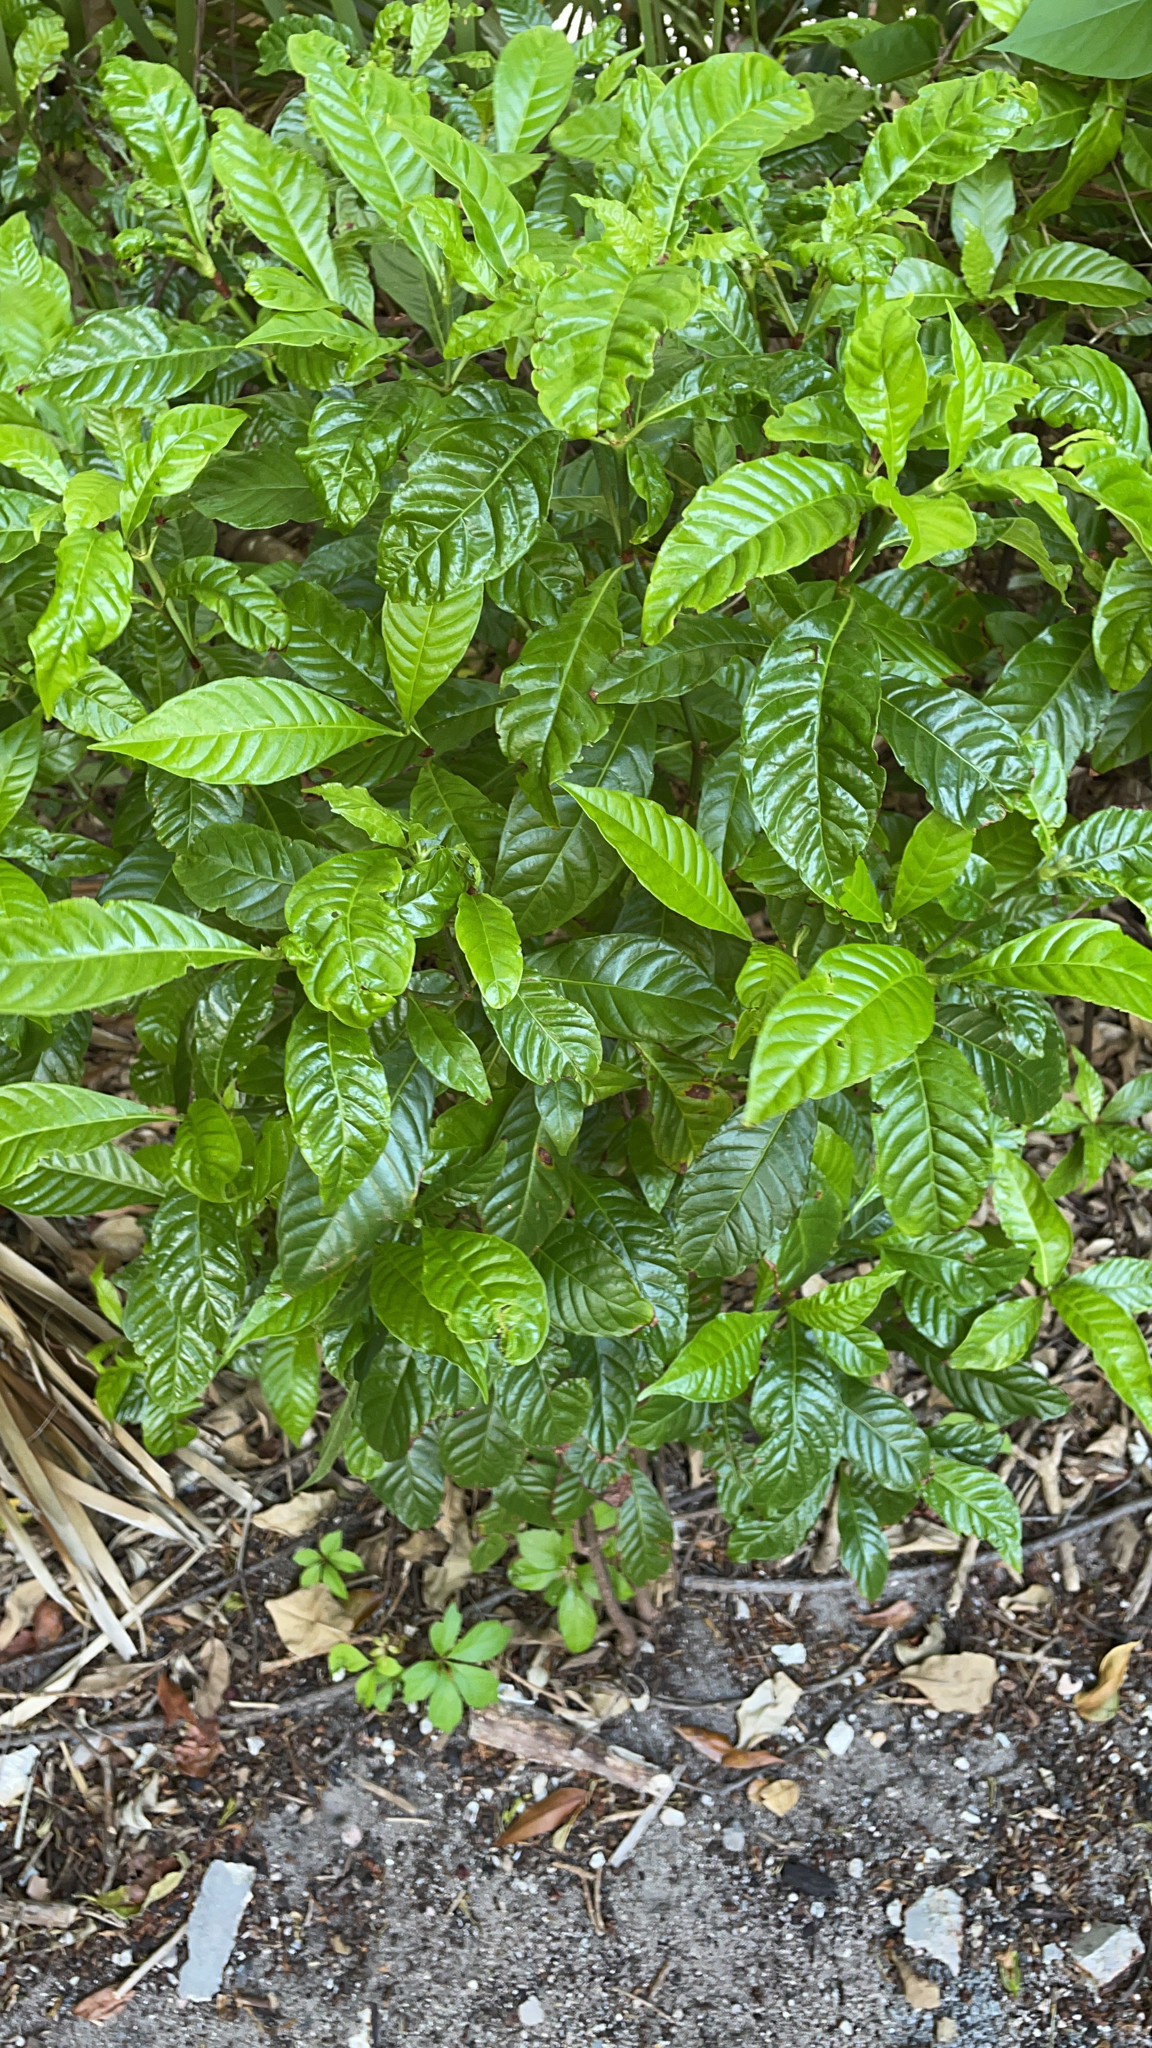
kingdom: Plantae
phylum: Tracheophyta
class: Magnoliopsida
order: Gentianales
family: Rubiaceae
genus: Psychotria
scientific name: Psychotria nervosa
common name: Bastard cankerberry
